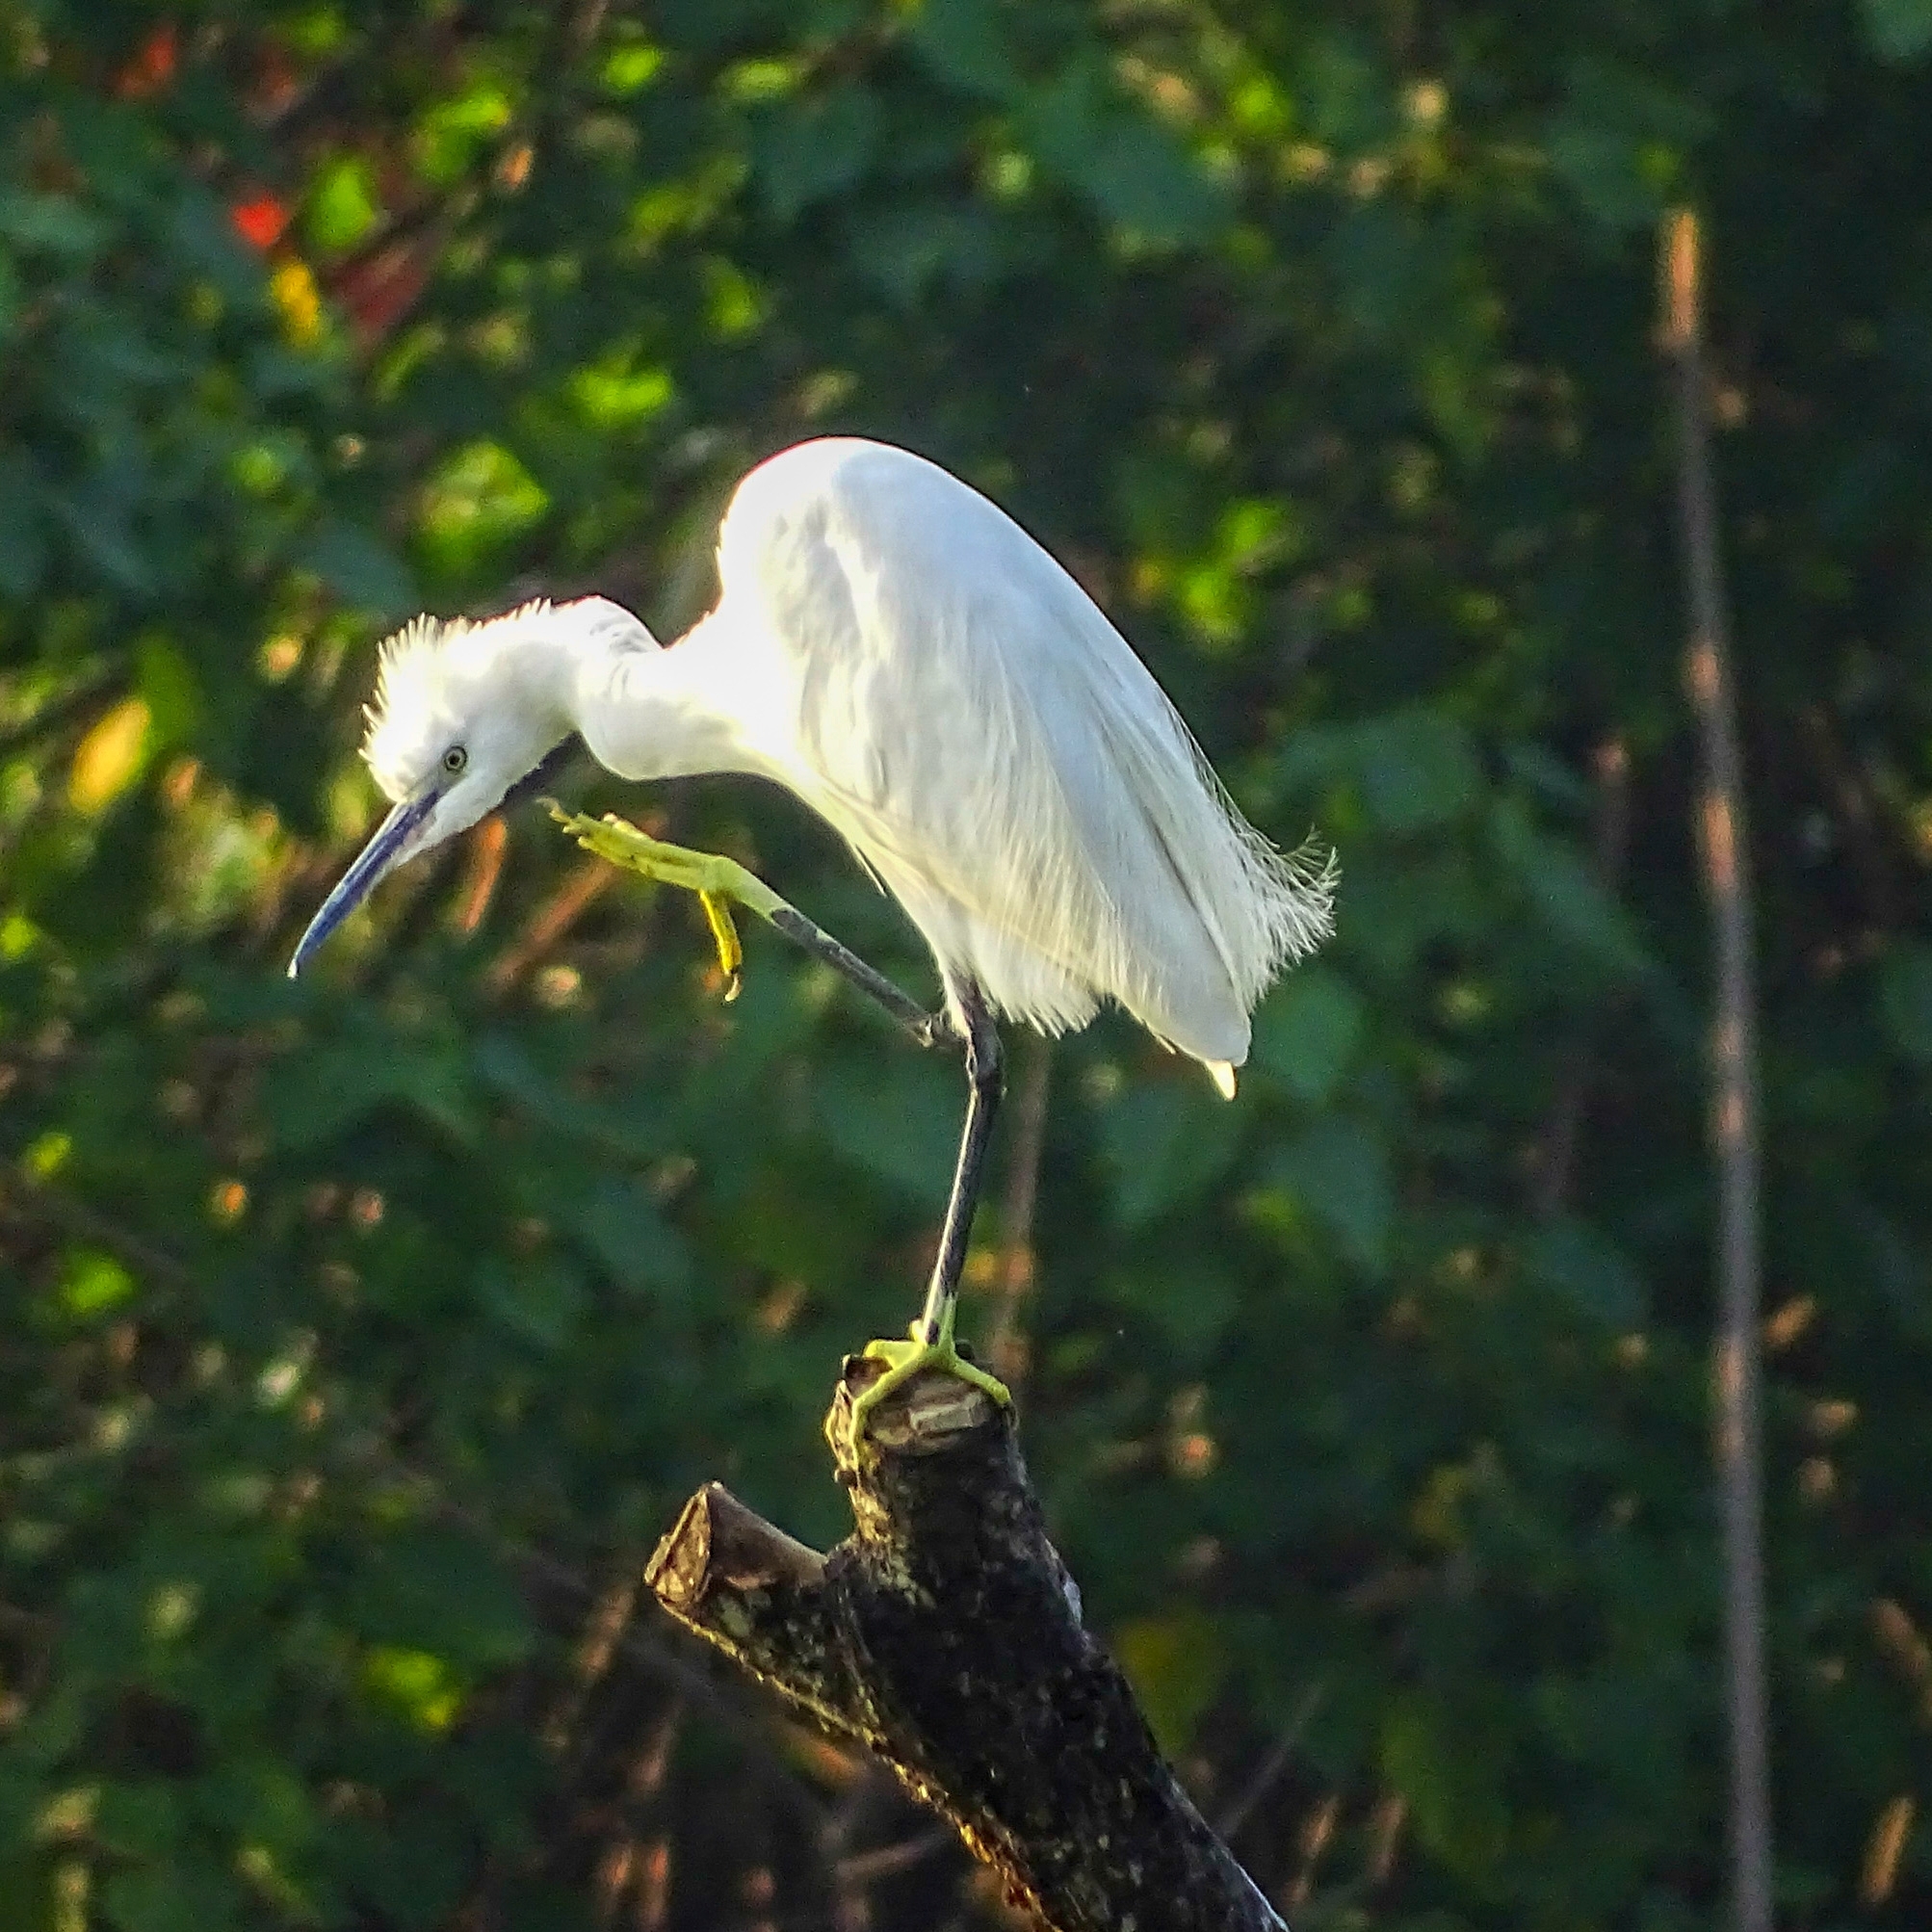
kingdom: Animalia
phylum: Chordata
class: Aves
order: Pelecaniformes
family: Ardeidae
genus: Egretta
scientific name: Egretta garzetta
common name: Little egret
